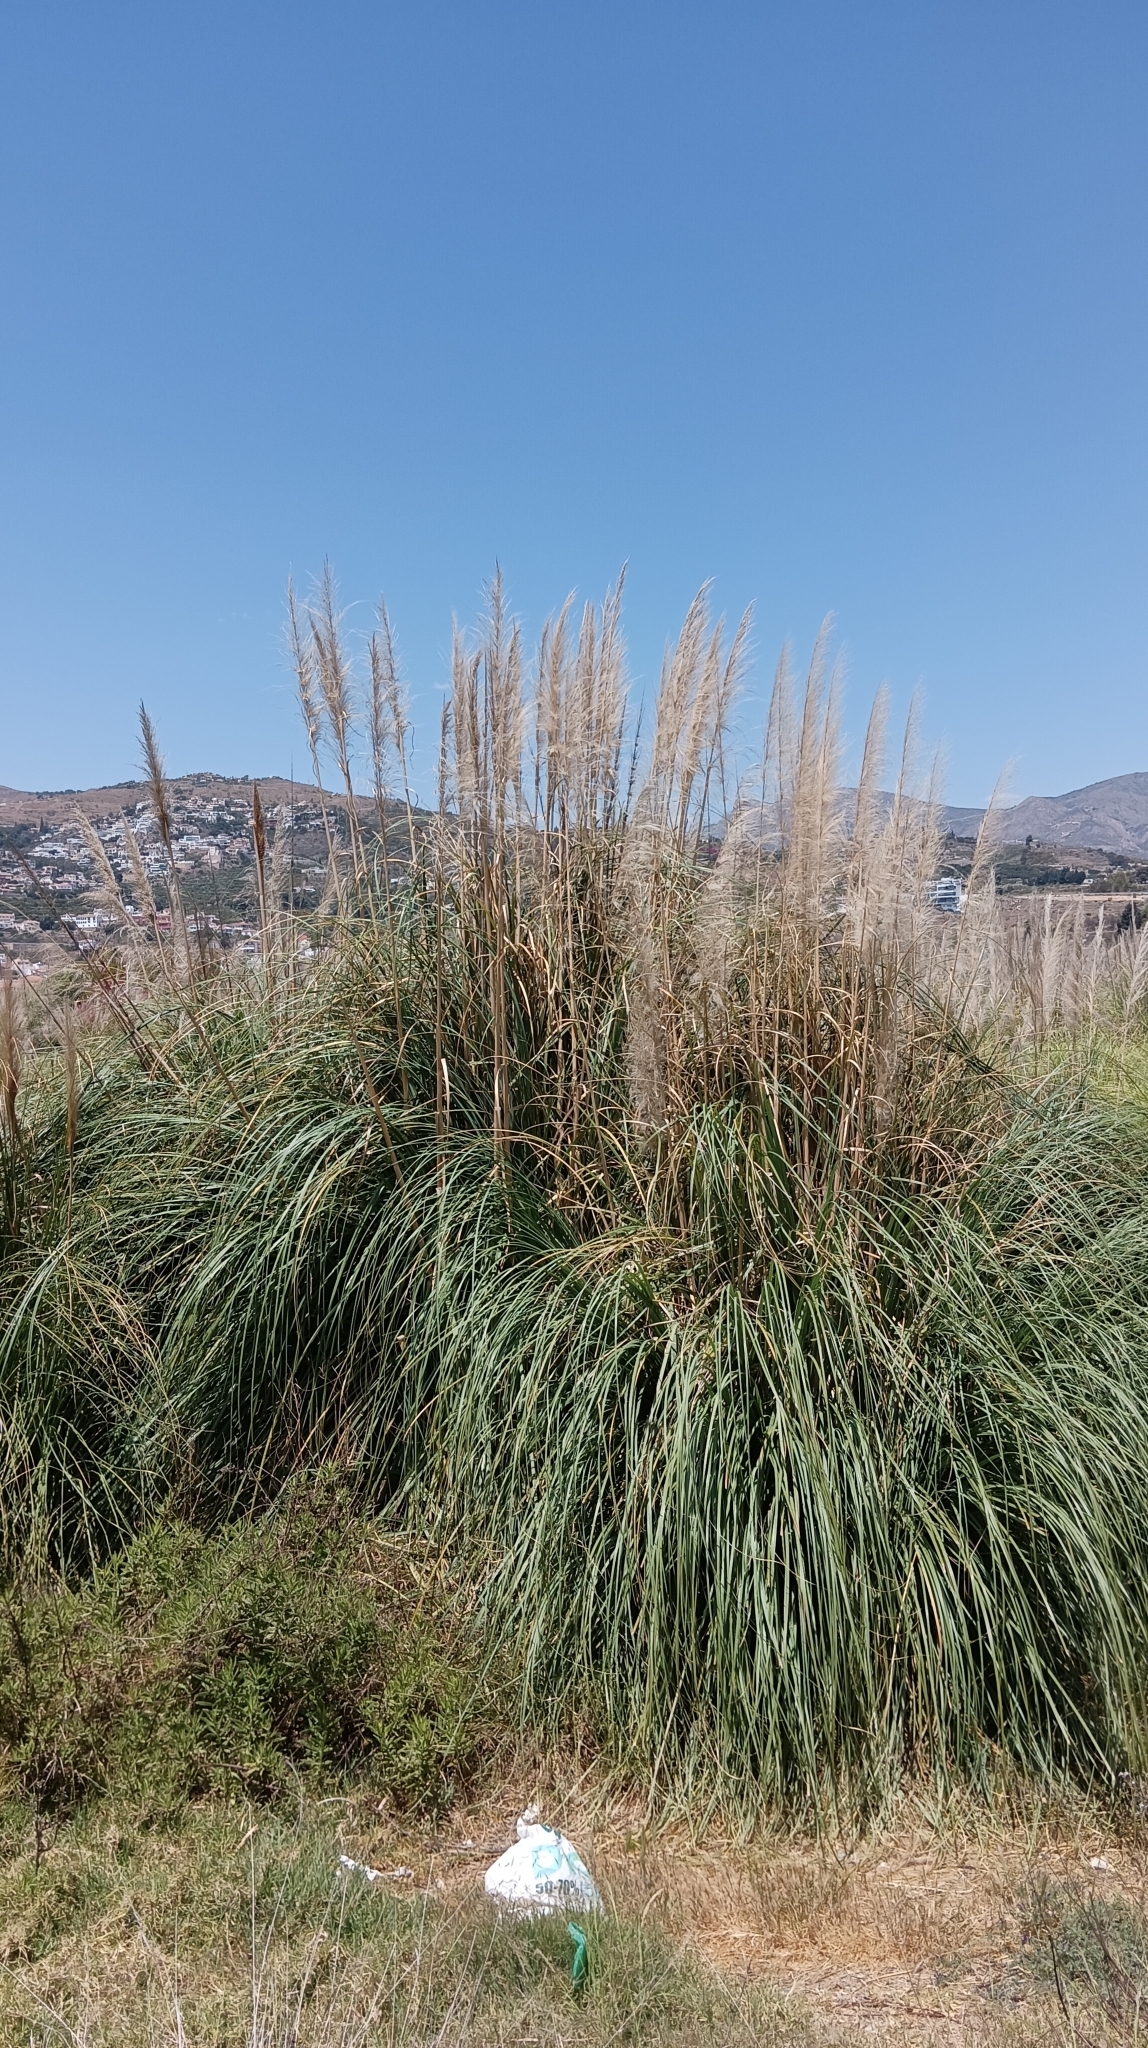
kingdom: Plantae
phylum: Tracheophyta
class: Liliopsida
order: Poales
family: Poaceae
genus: Cortaderia
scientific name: Cortaderia selloana
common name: Uruguayan pampas grass
